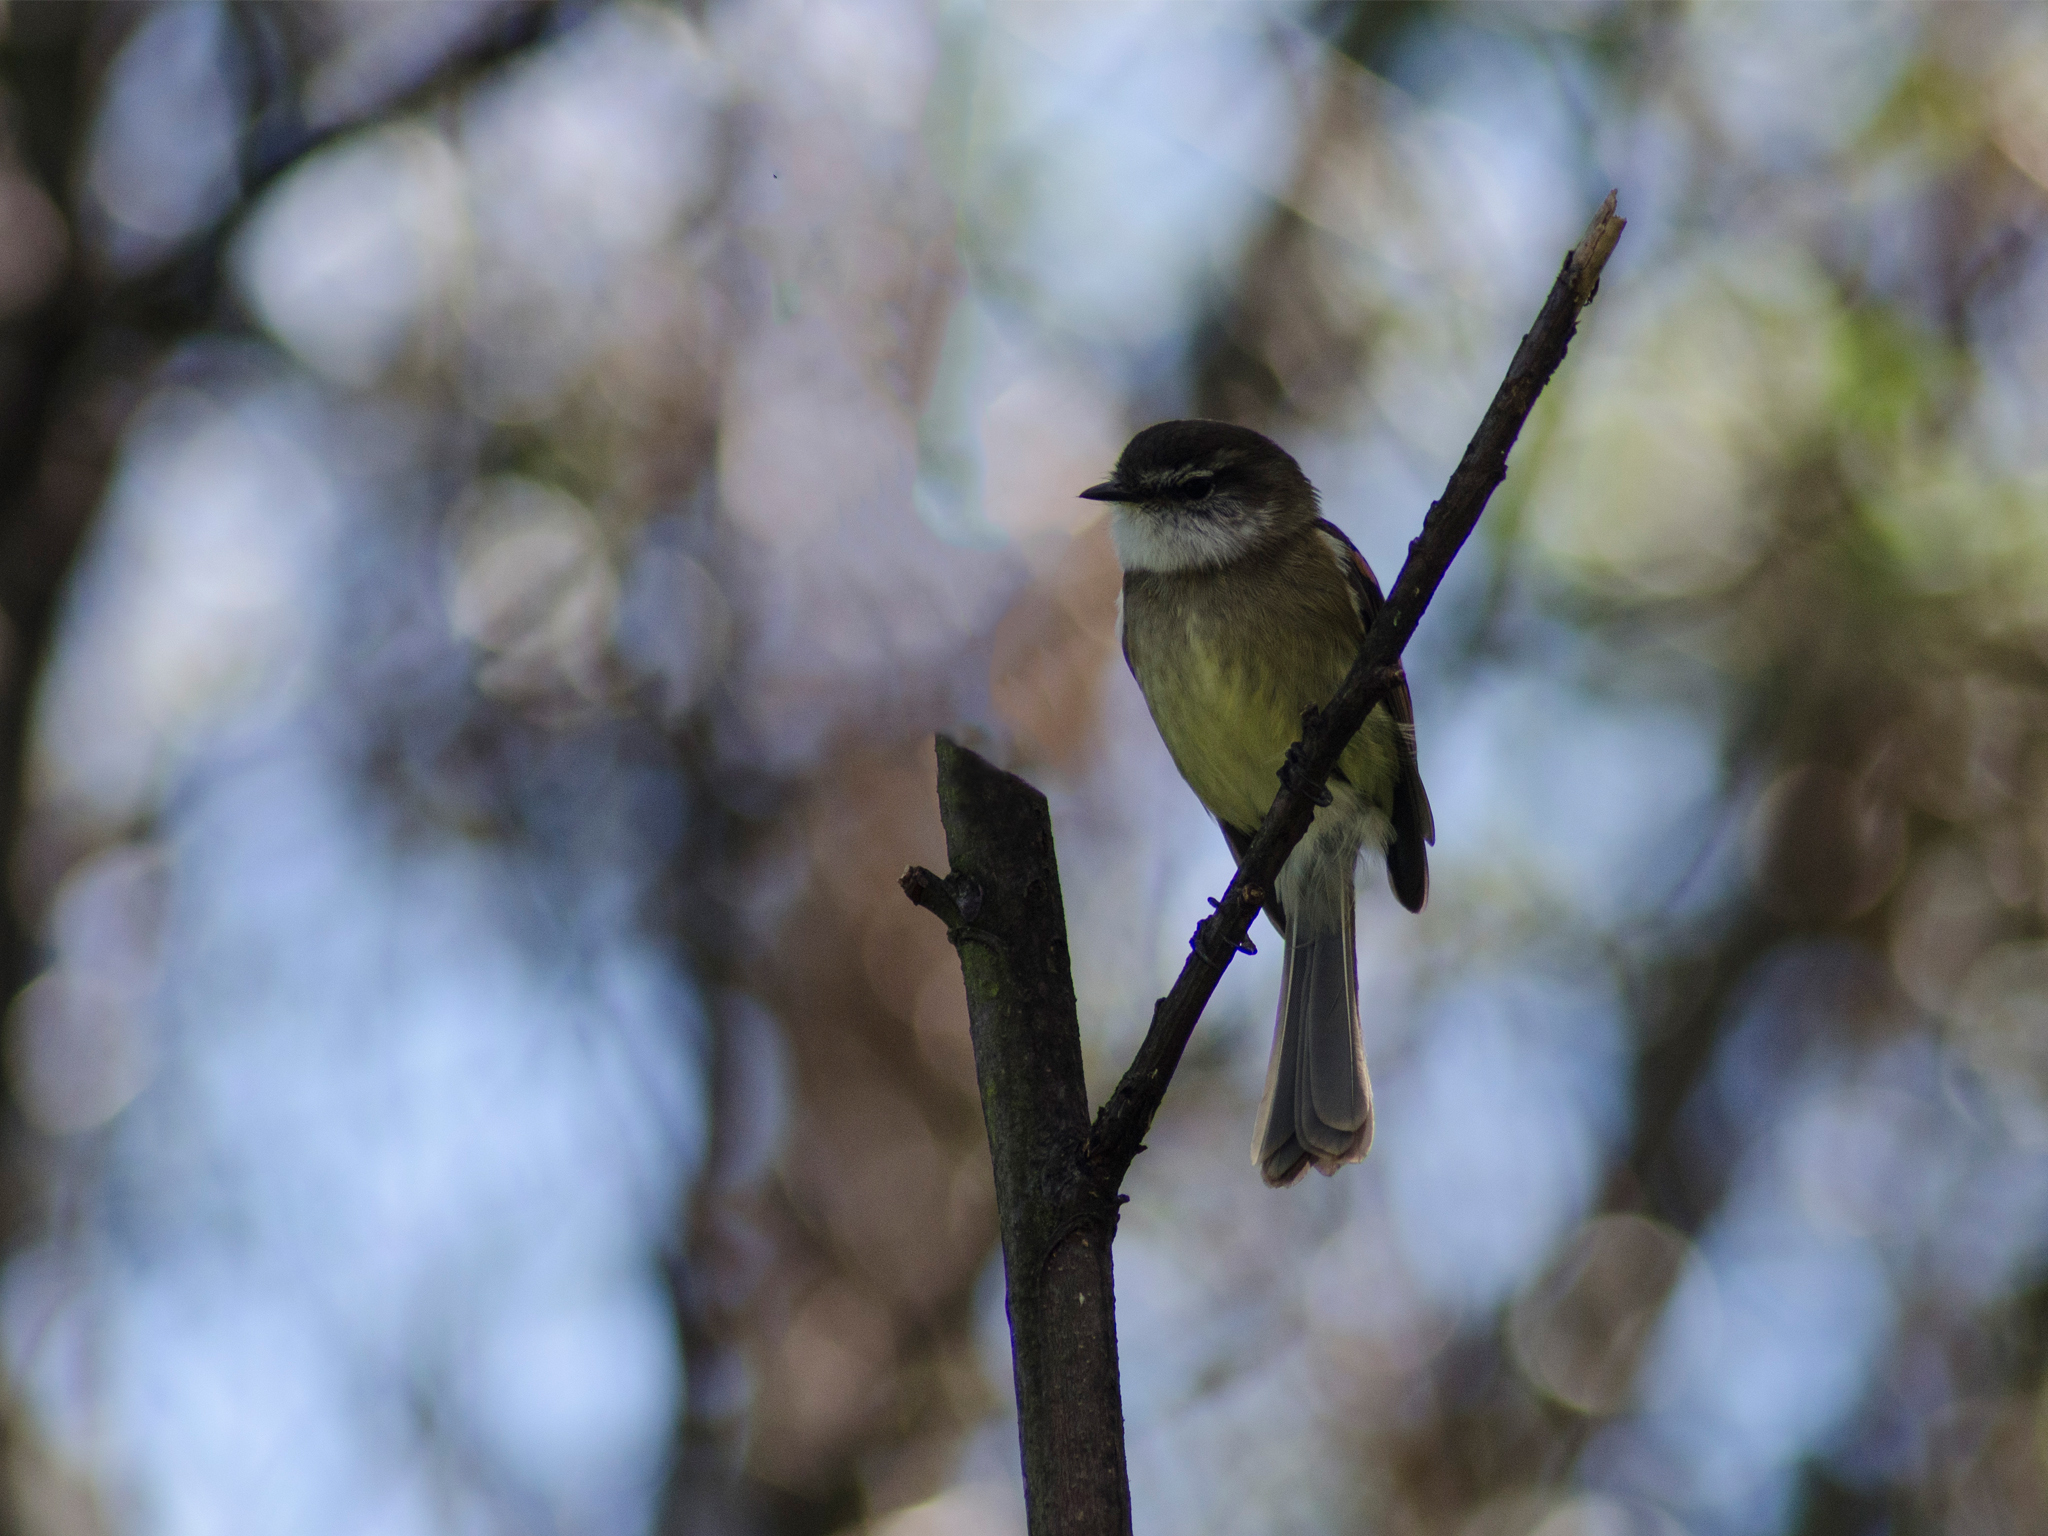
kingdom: Animalia
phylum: Chordata
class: Aves
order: Passeriformes
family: Tyrannidae
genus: Mecocerculus
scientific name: Mecocerculus leucophrys
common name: White-throated tyrannulet
